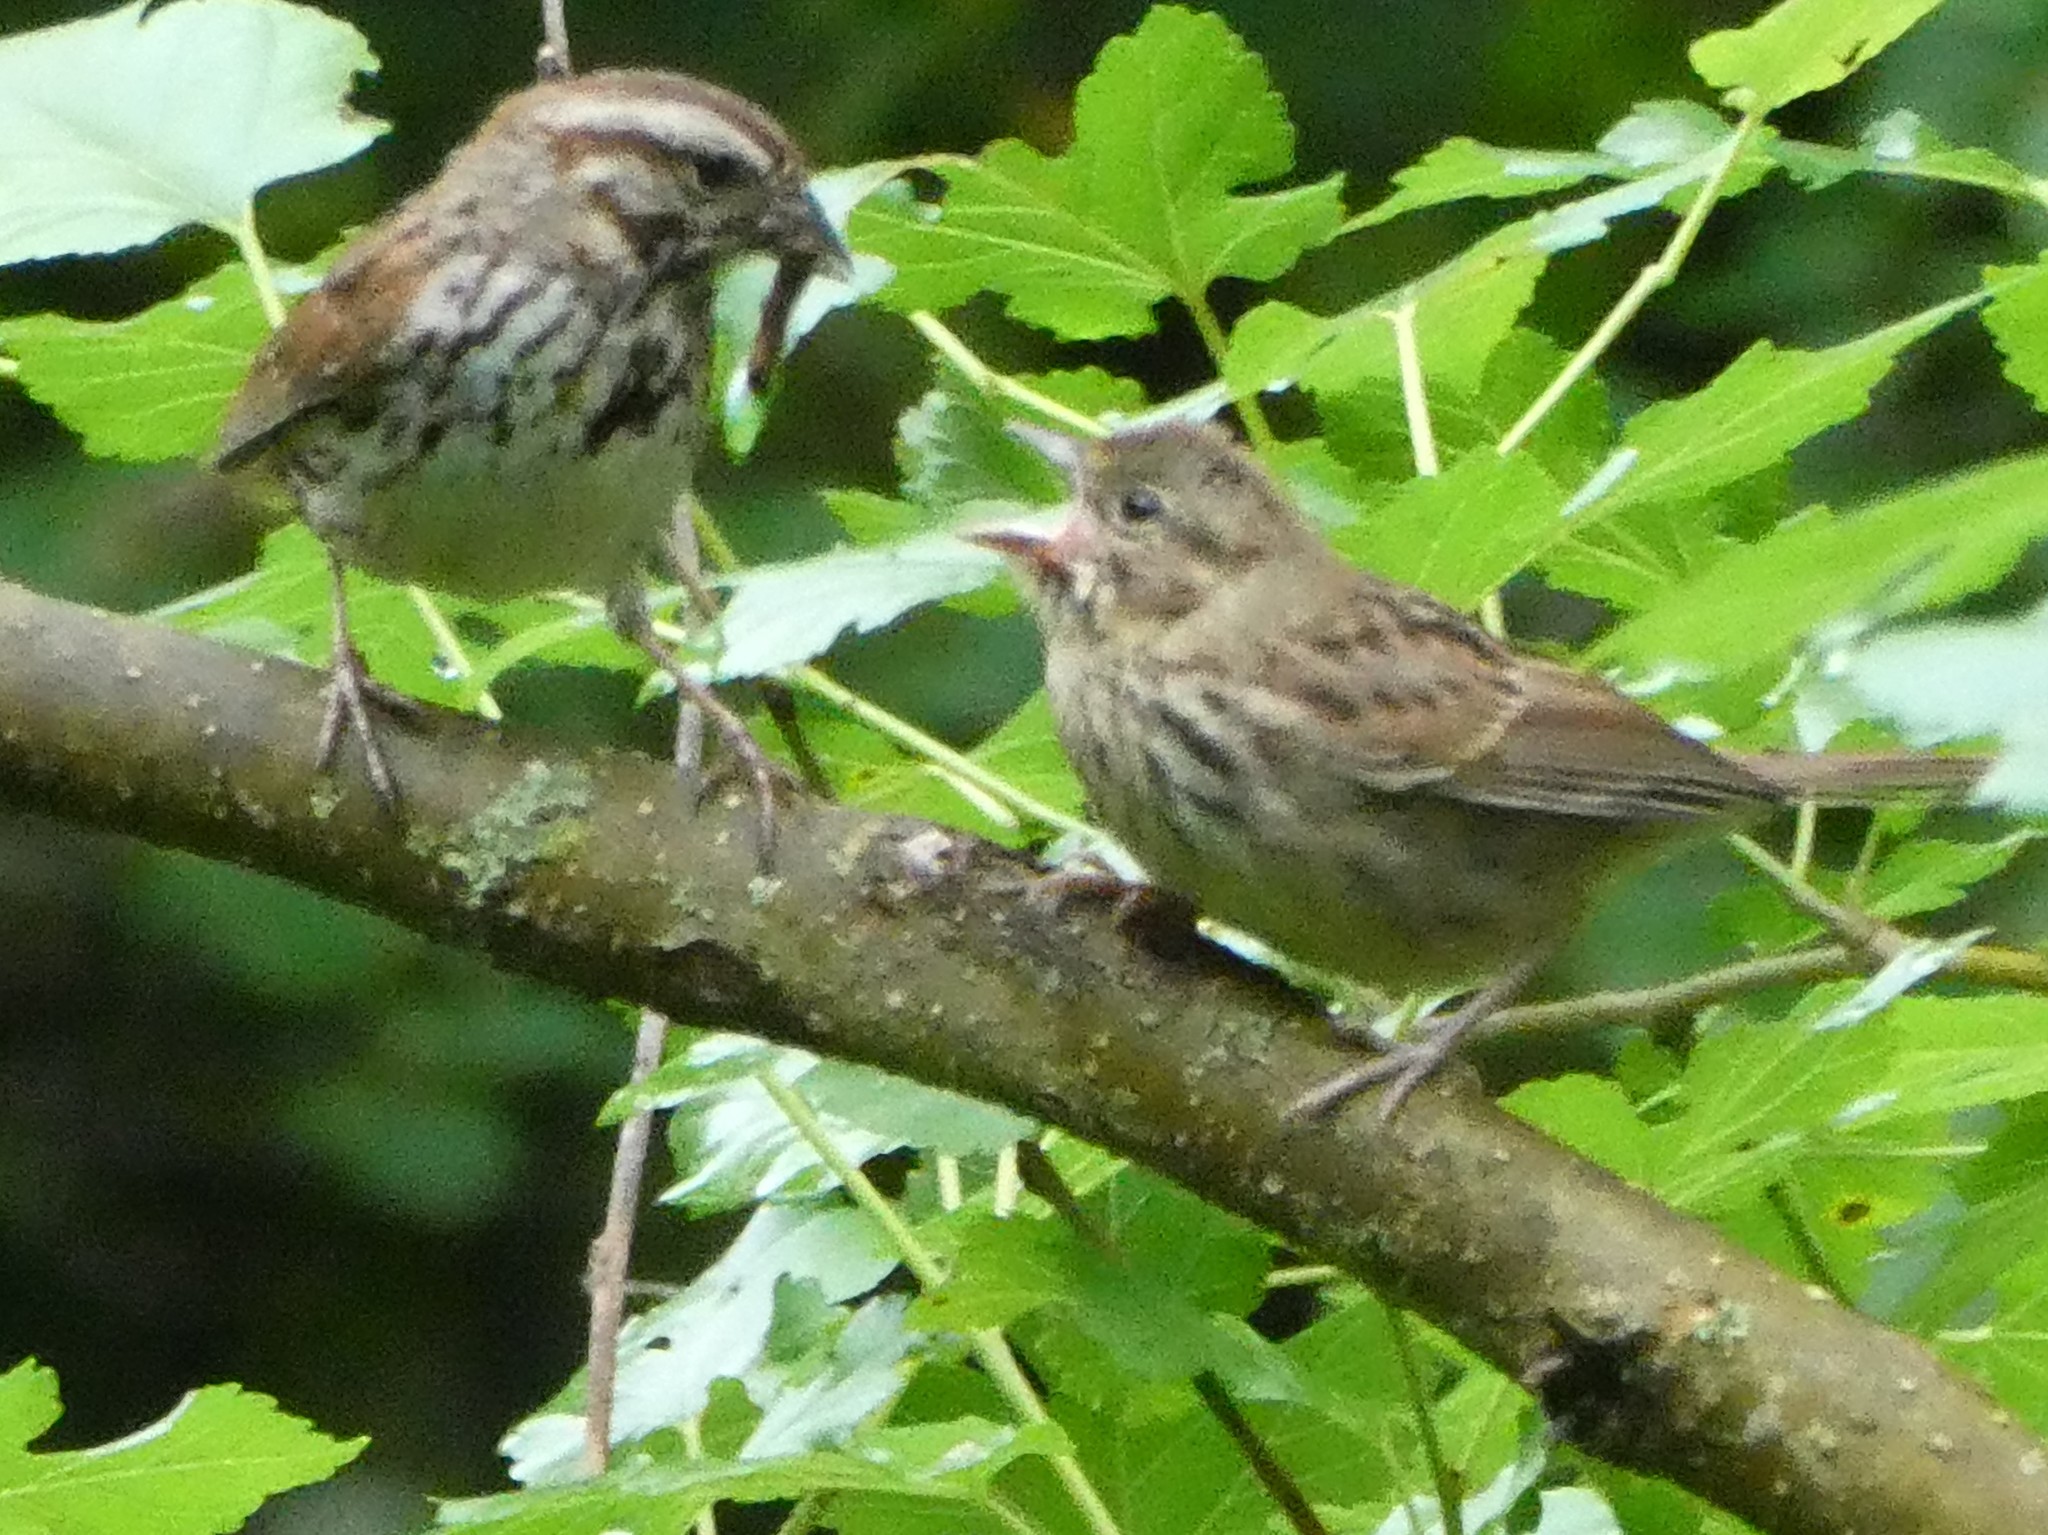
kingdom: Animalia
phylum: Chordata
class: Aves
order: Passeriformes
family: Passerellidae
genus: Melospiza
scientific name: Melospiza melodia
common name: Song sparrow
